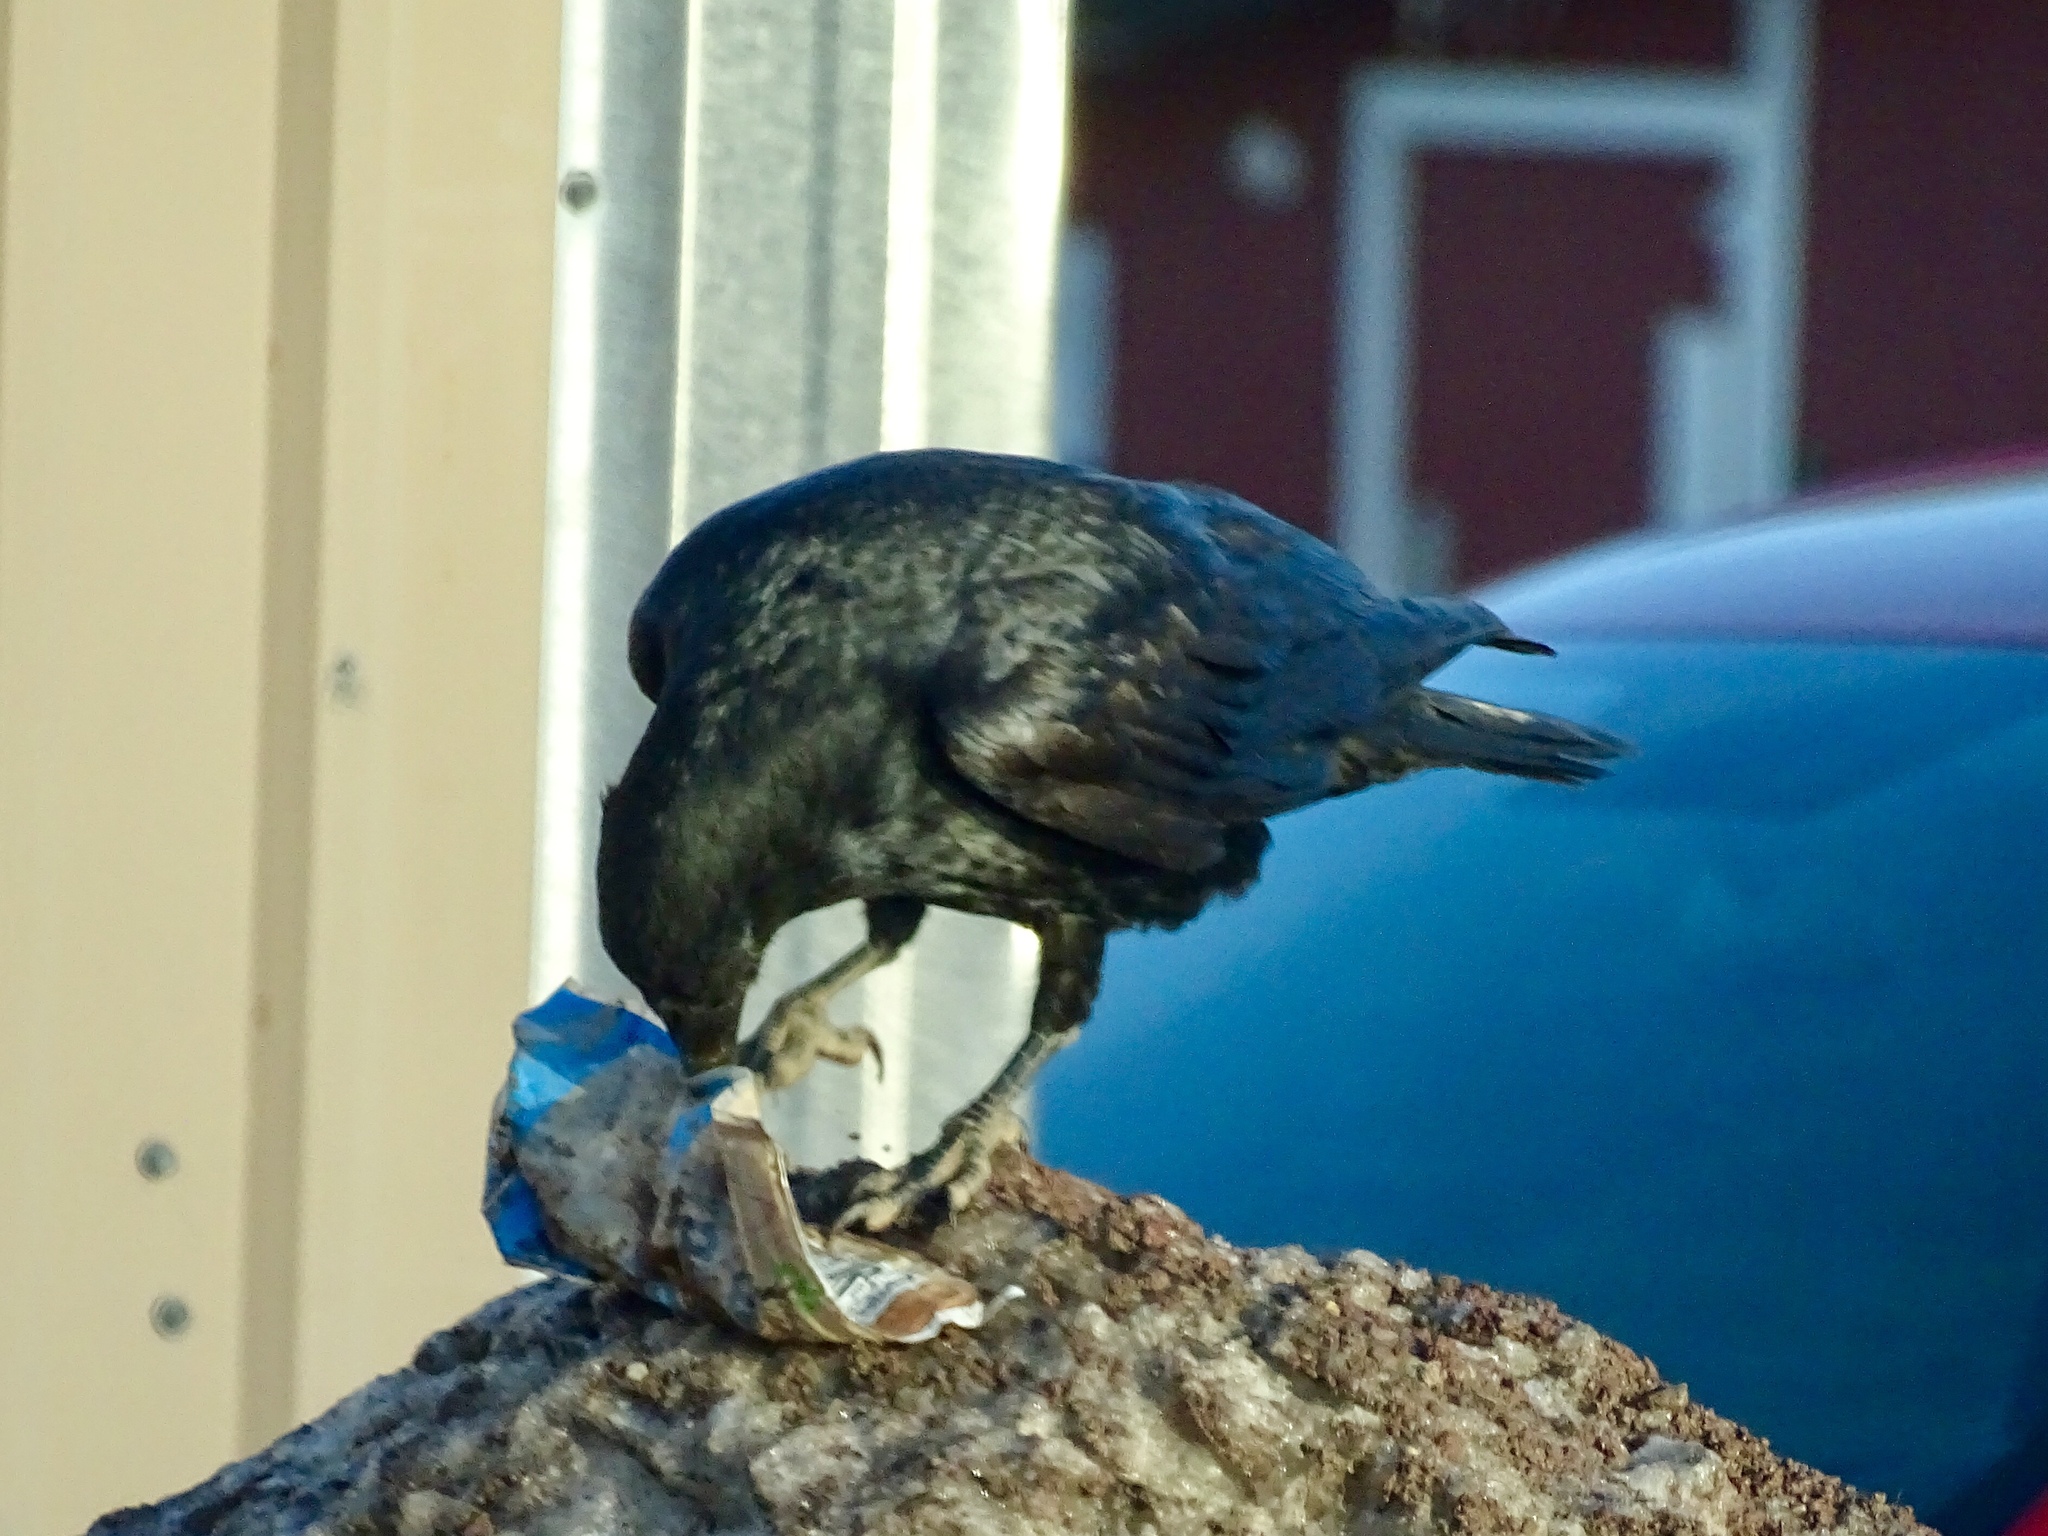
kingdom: Animalia
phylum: Chordata
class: Aves
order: Passeriformes
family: Corvidae
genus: Corvus
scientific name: Corvus corax
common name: Common raven
